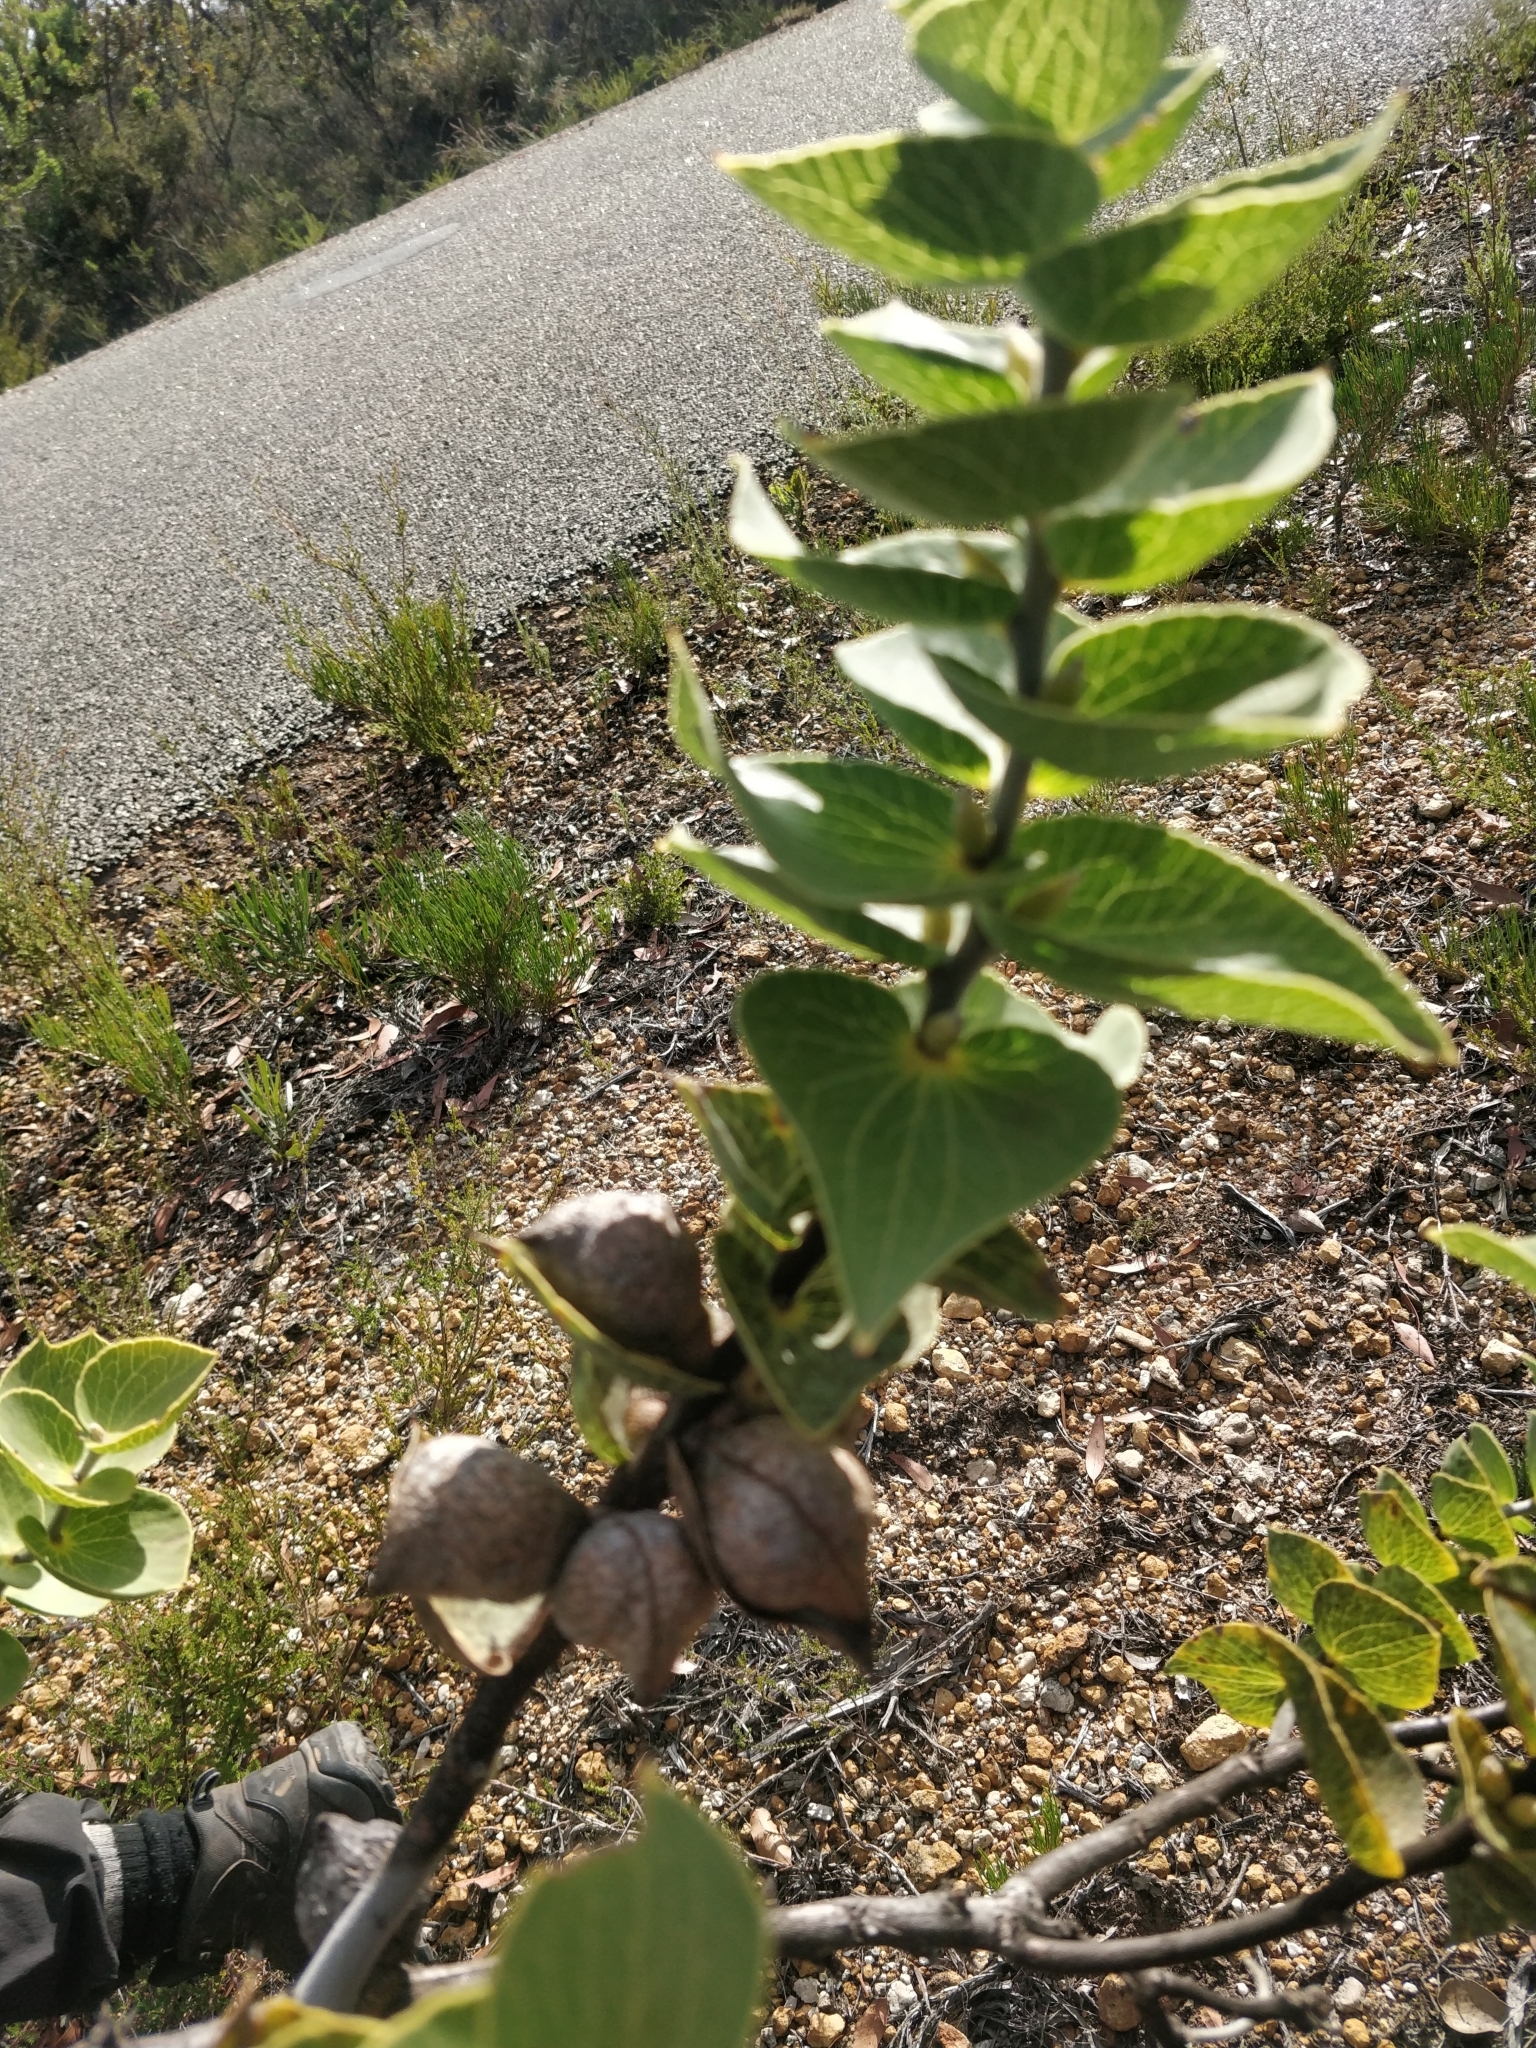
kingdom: Plantae
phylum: Tracheophyta
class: Magnoliopsida
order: Proteales
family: Proteaceae
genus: Hakea
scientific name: Hakea cucullata
